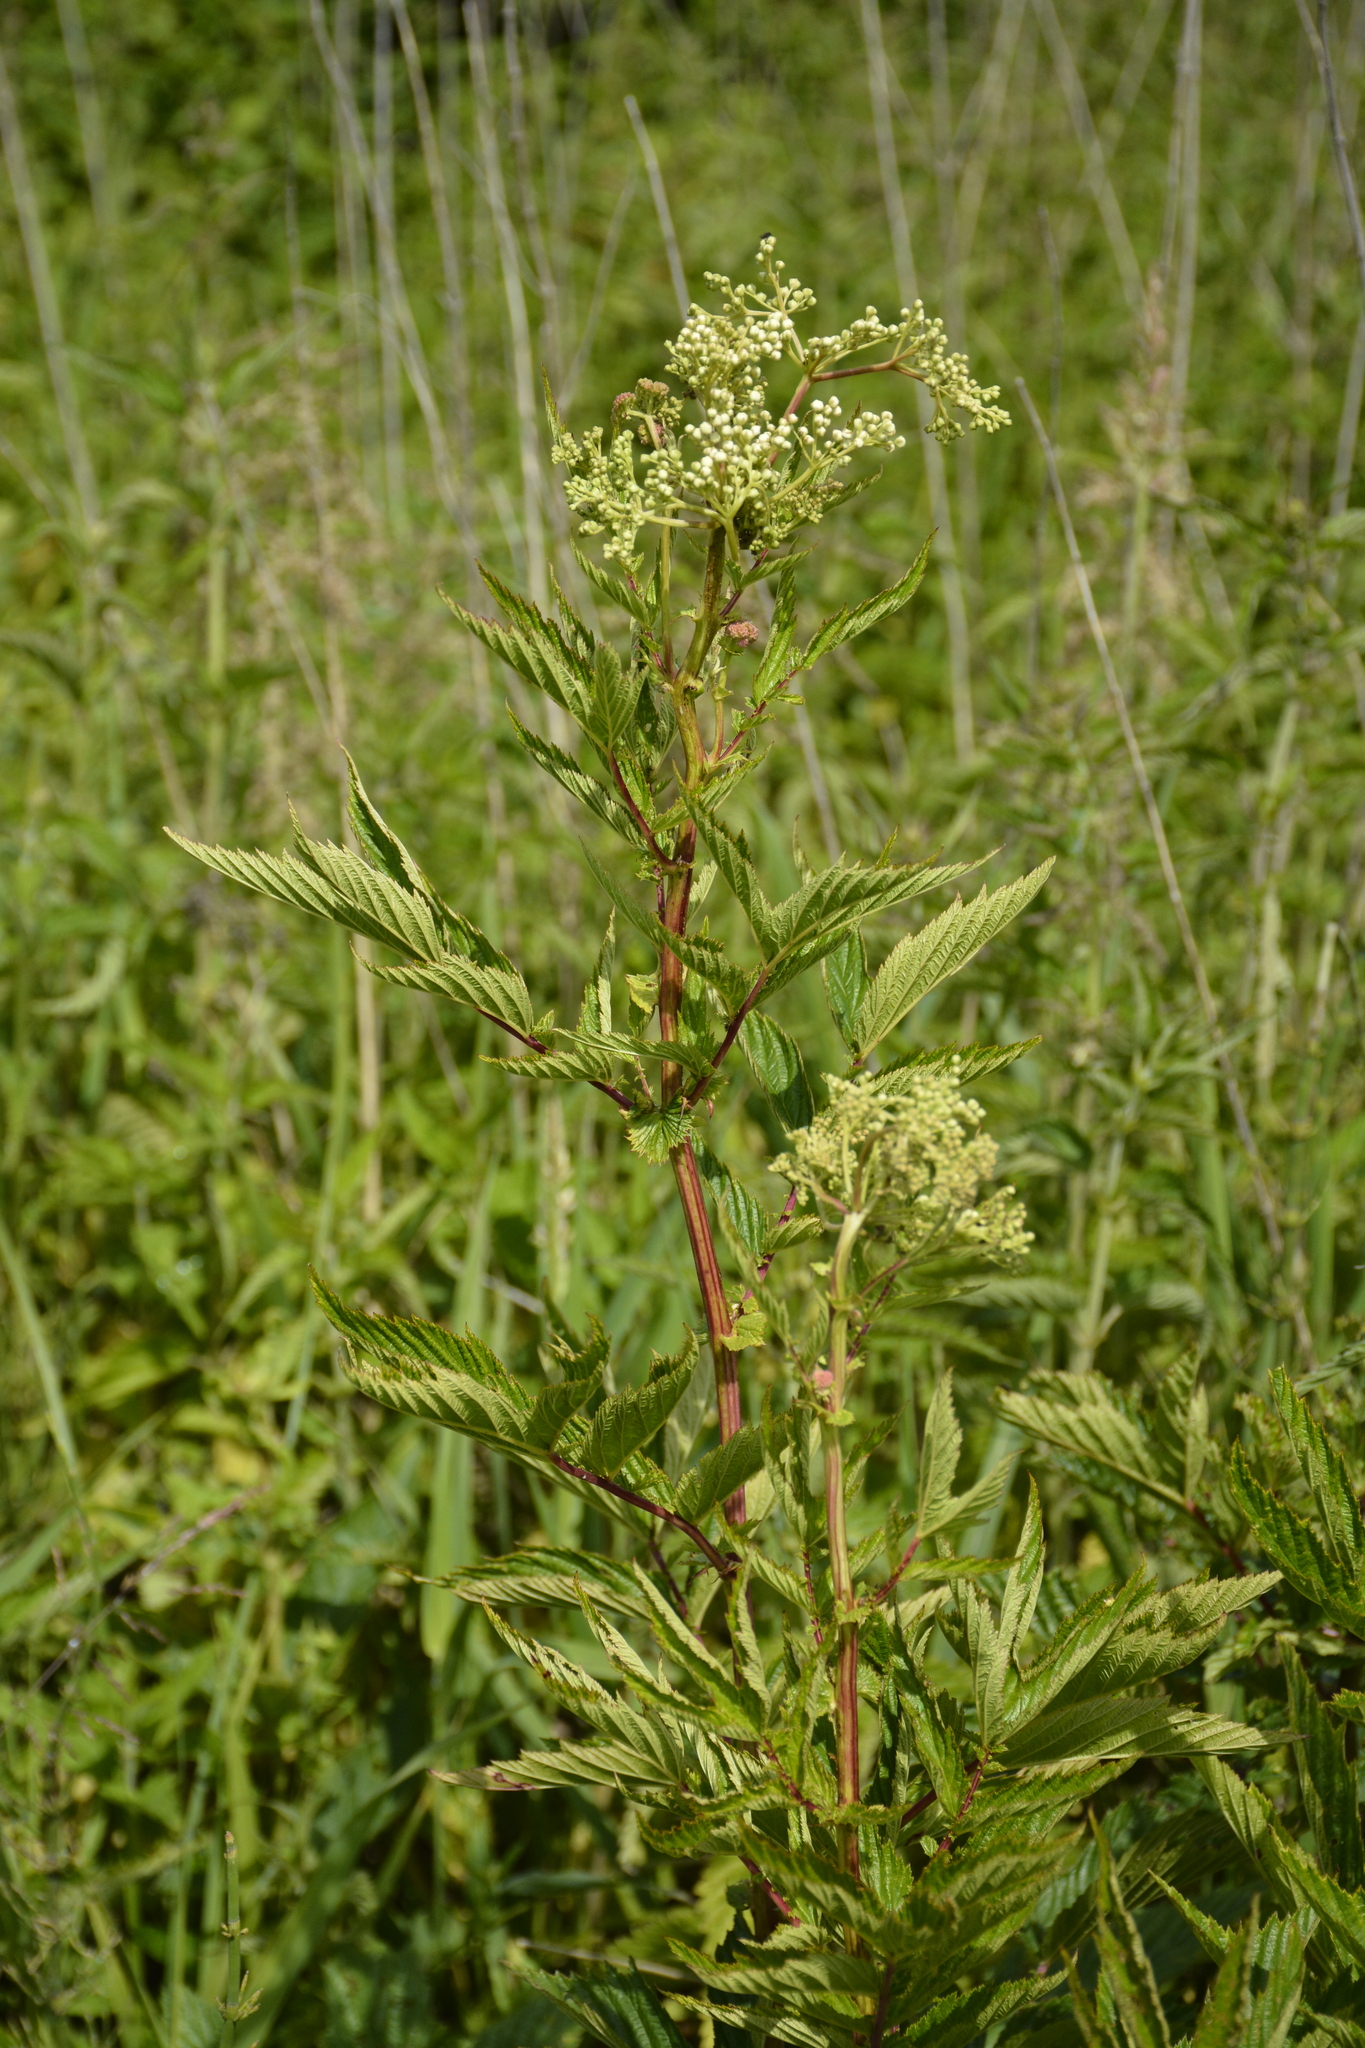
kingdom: Plantae
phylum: Tracheophyta
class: Magnoliopsida
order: Rosales
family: Rosaceae
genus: Filipendula
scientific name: Filipendula ulmaria
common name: Meadowsweet
